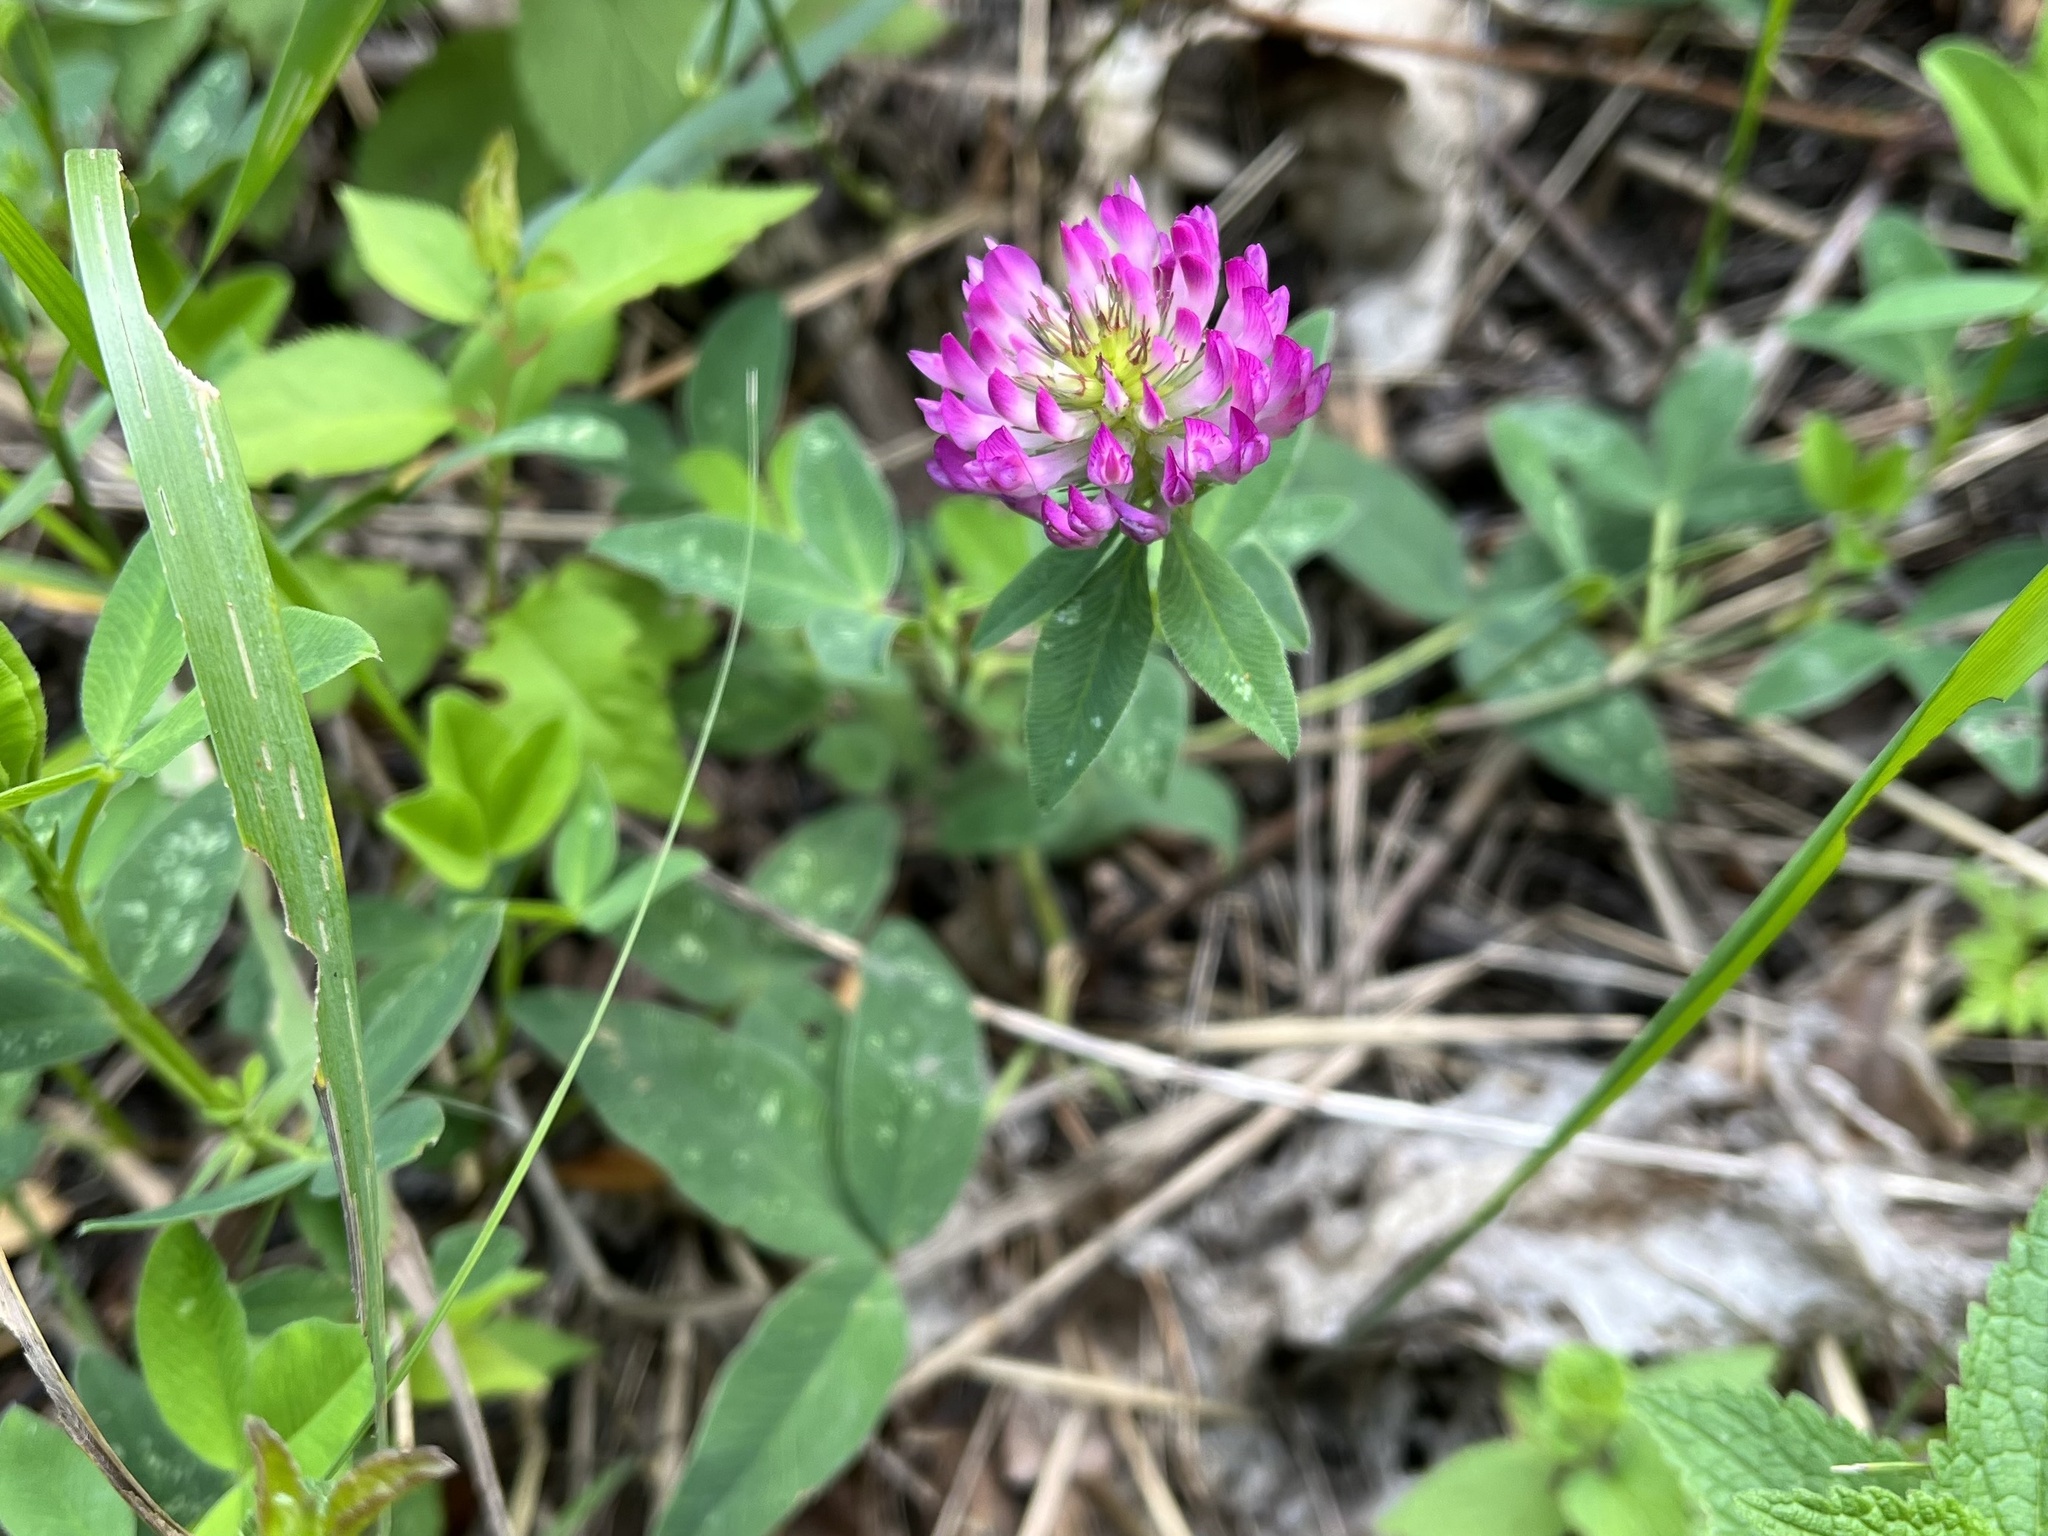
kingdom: Plantae
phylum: Tracheophyta
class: Magnoliopsida
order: Fabales
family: Fabaceae
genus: Trifolium
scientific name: Trifolium medium
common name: Zigzag clover
